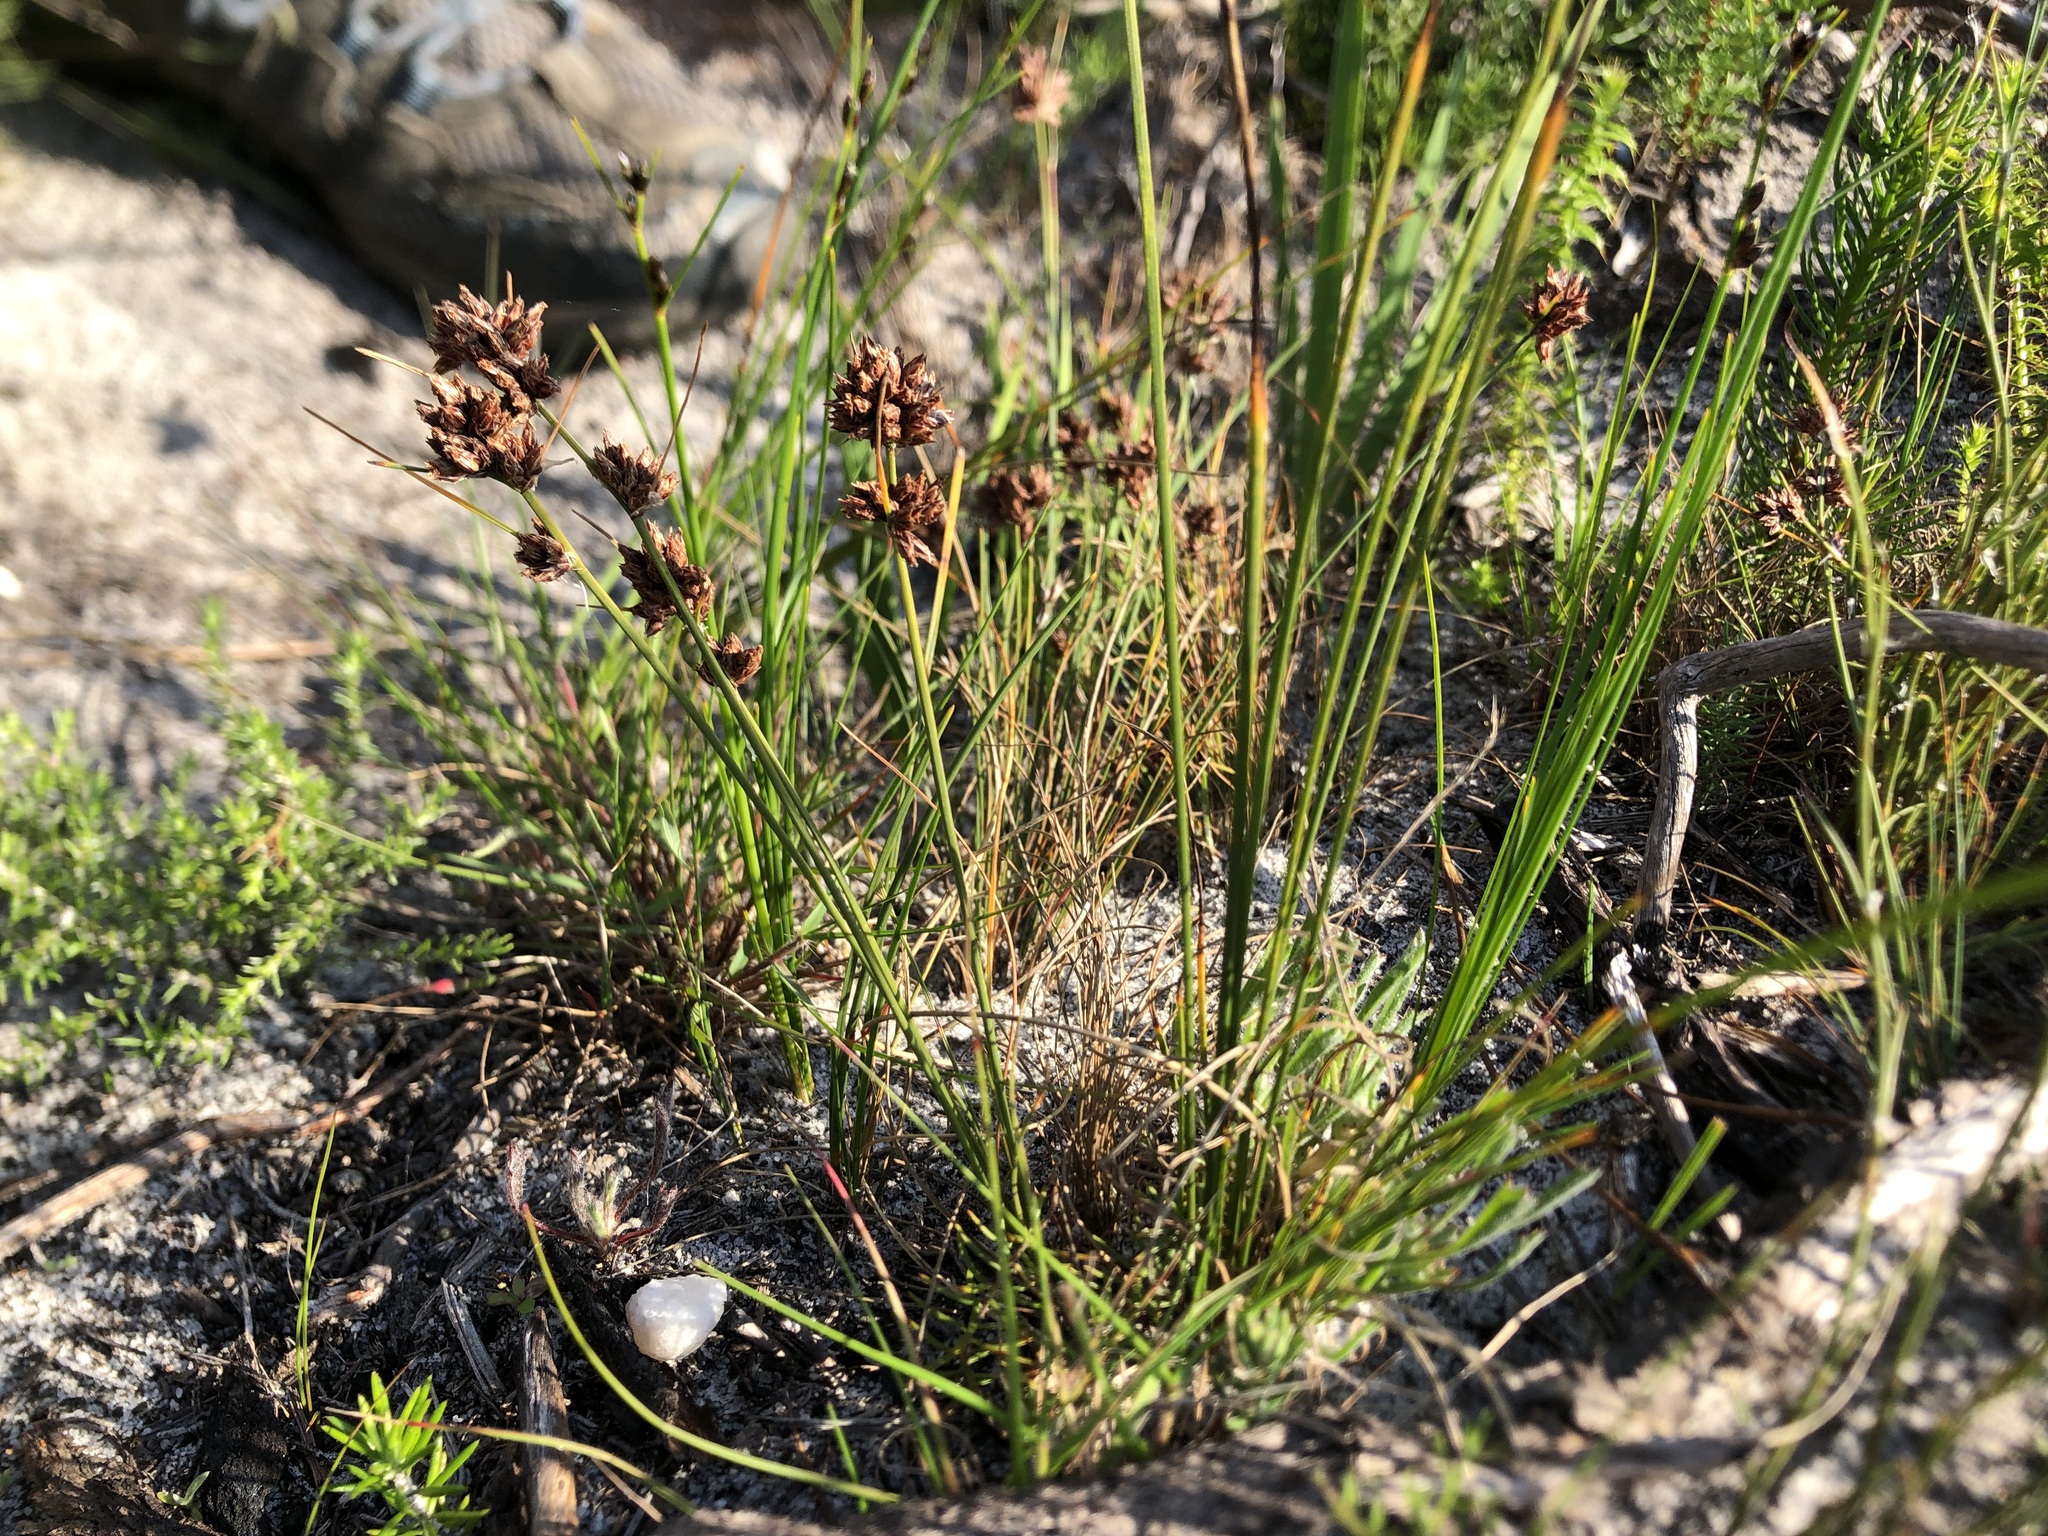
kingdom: Plantae
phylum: Tracheophyta
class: Liliopsida
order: Poales
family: Cyperaceae
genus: Ficinia
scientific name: Ficinia bulbosa
